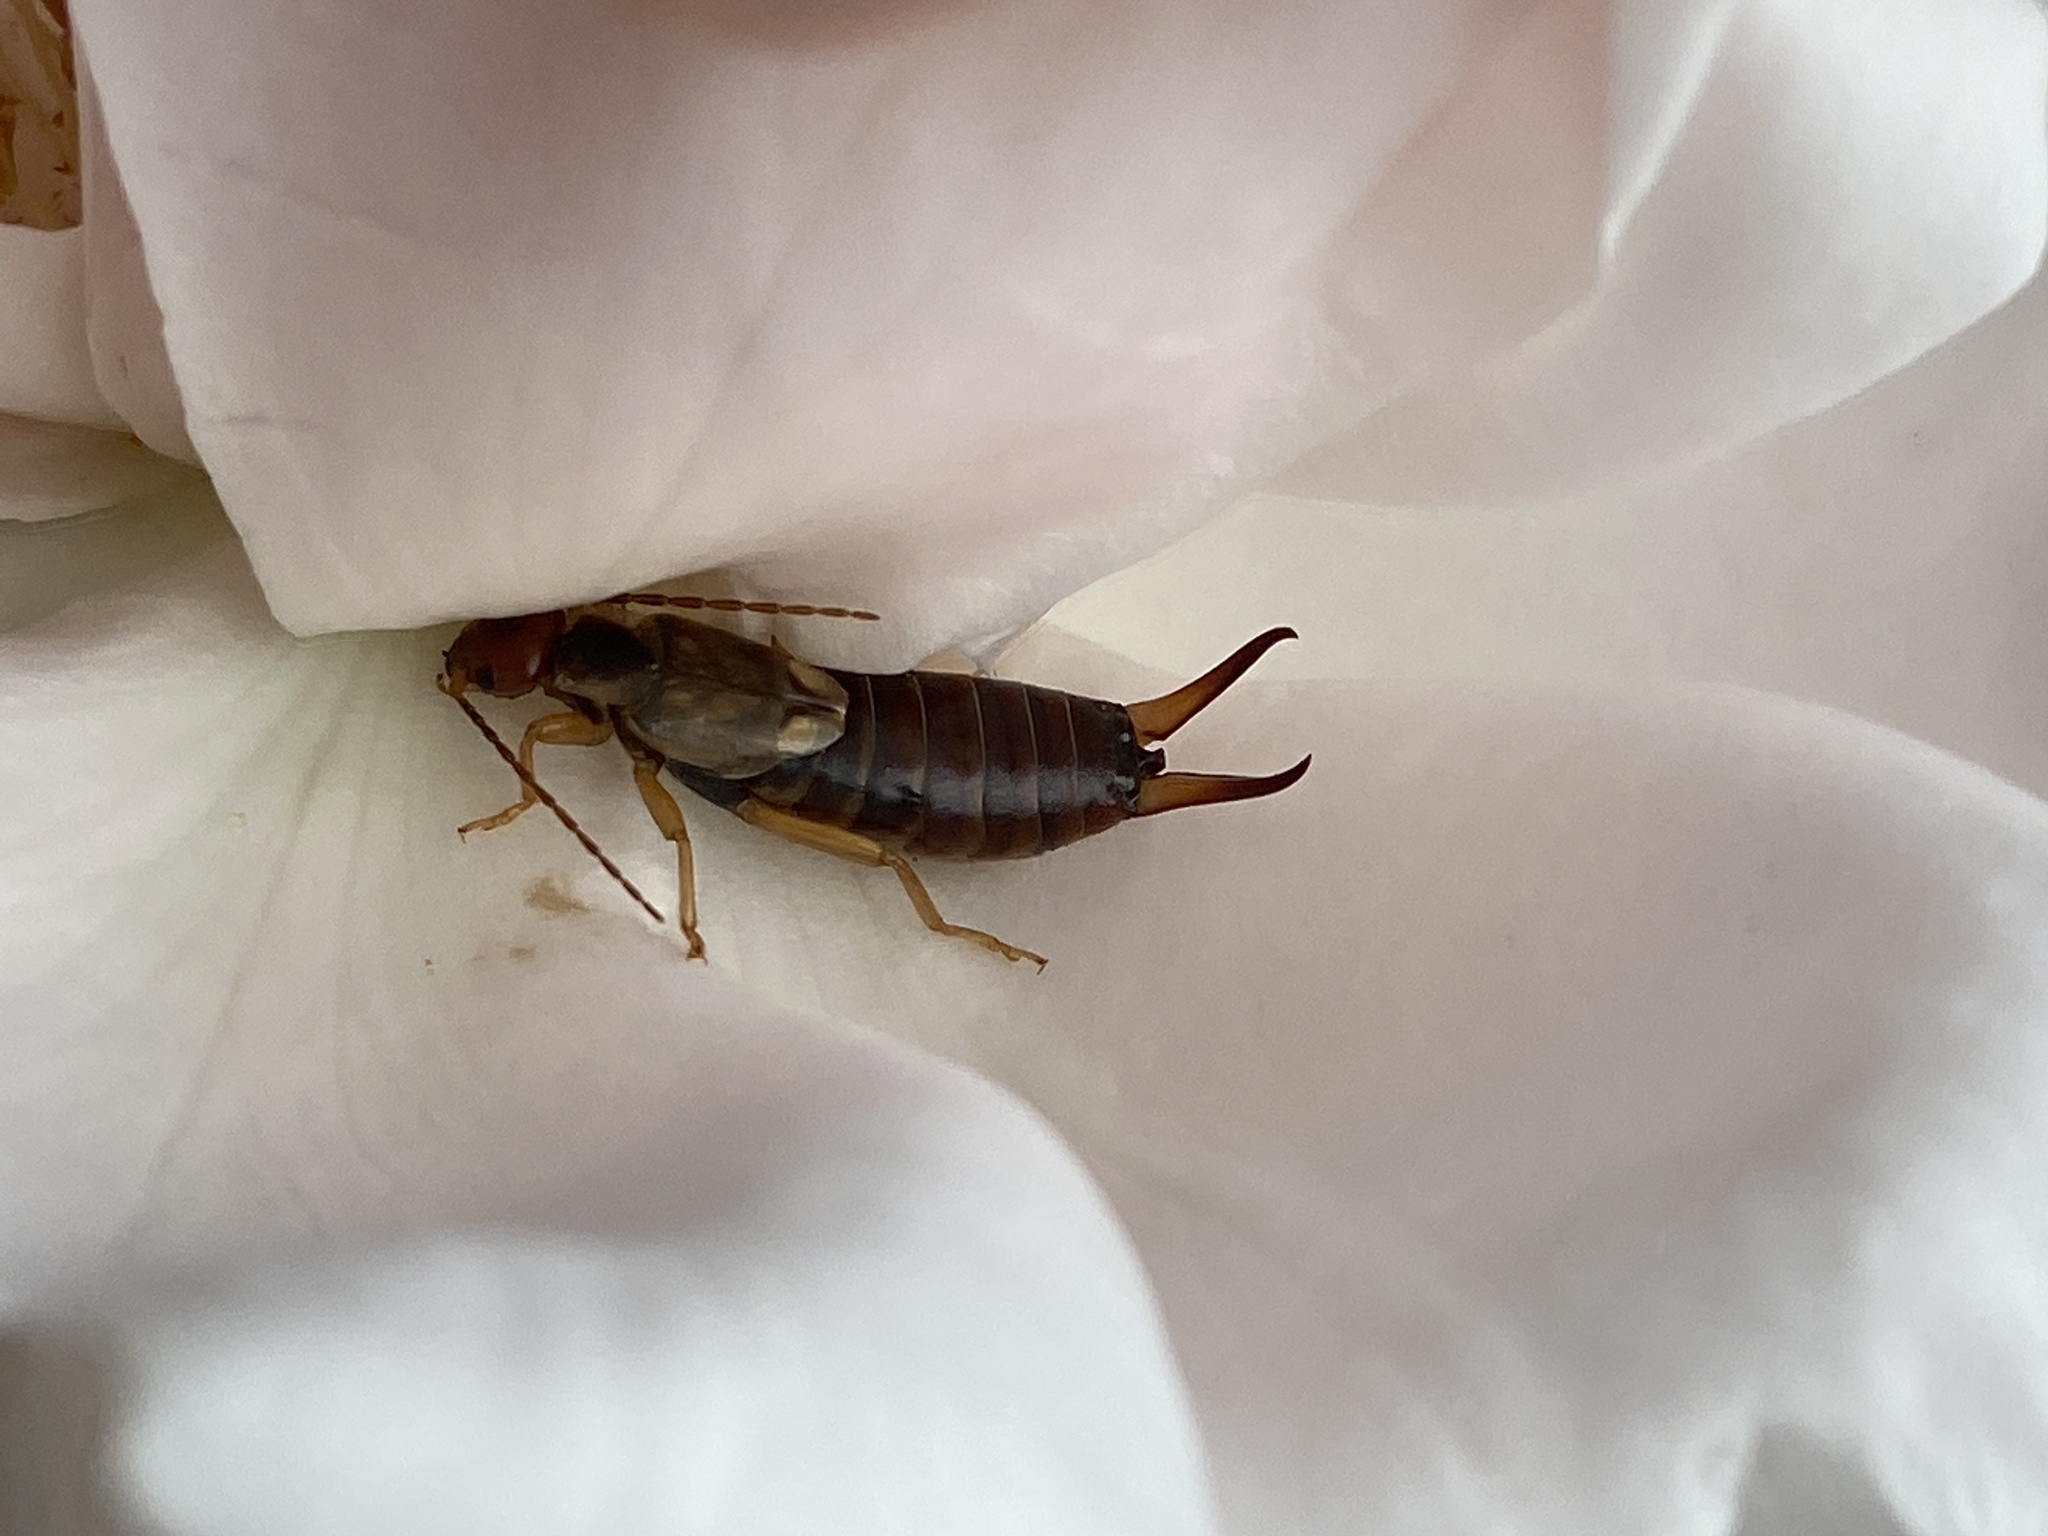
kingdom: Animalia
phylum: Arthropoda
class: Insecta
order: Dermaptera
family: Forficulidae
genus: Forficula
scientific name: Forficula
